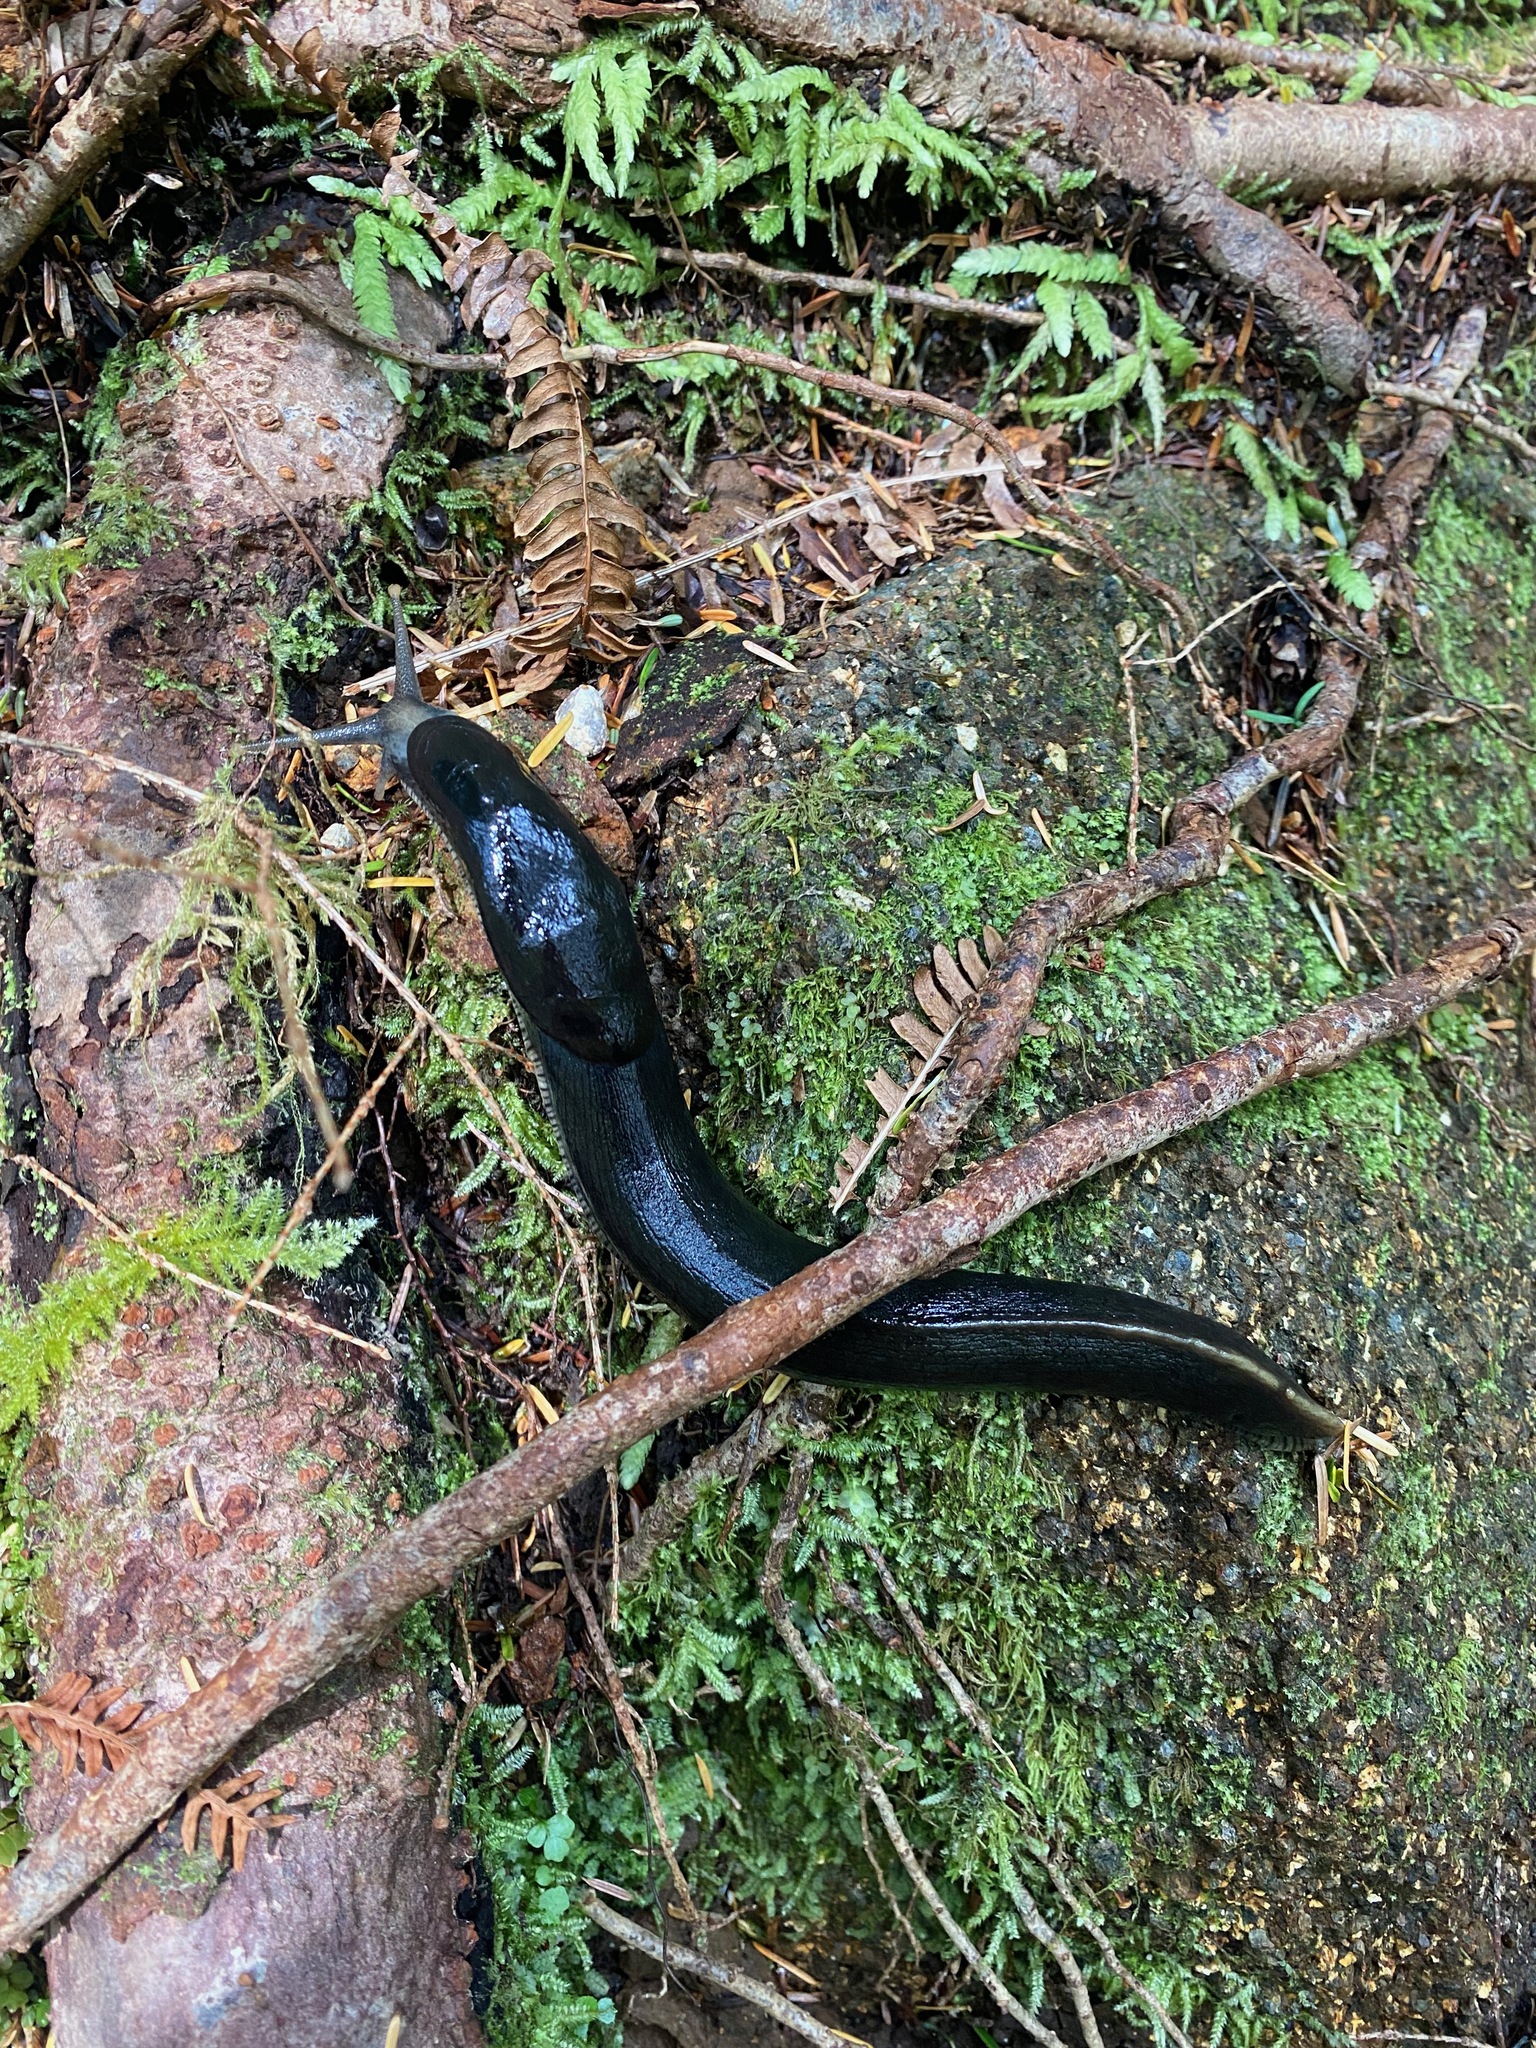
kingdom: Animalia
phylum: Mollusca
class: Gastropoda
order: Stylommatophora
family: Ariolimacidae
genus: Ariolimax
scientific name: Ariolimax columbianus
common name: Pacific banana slug
